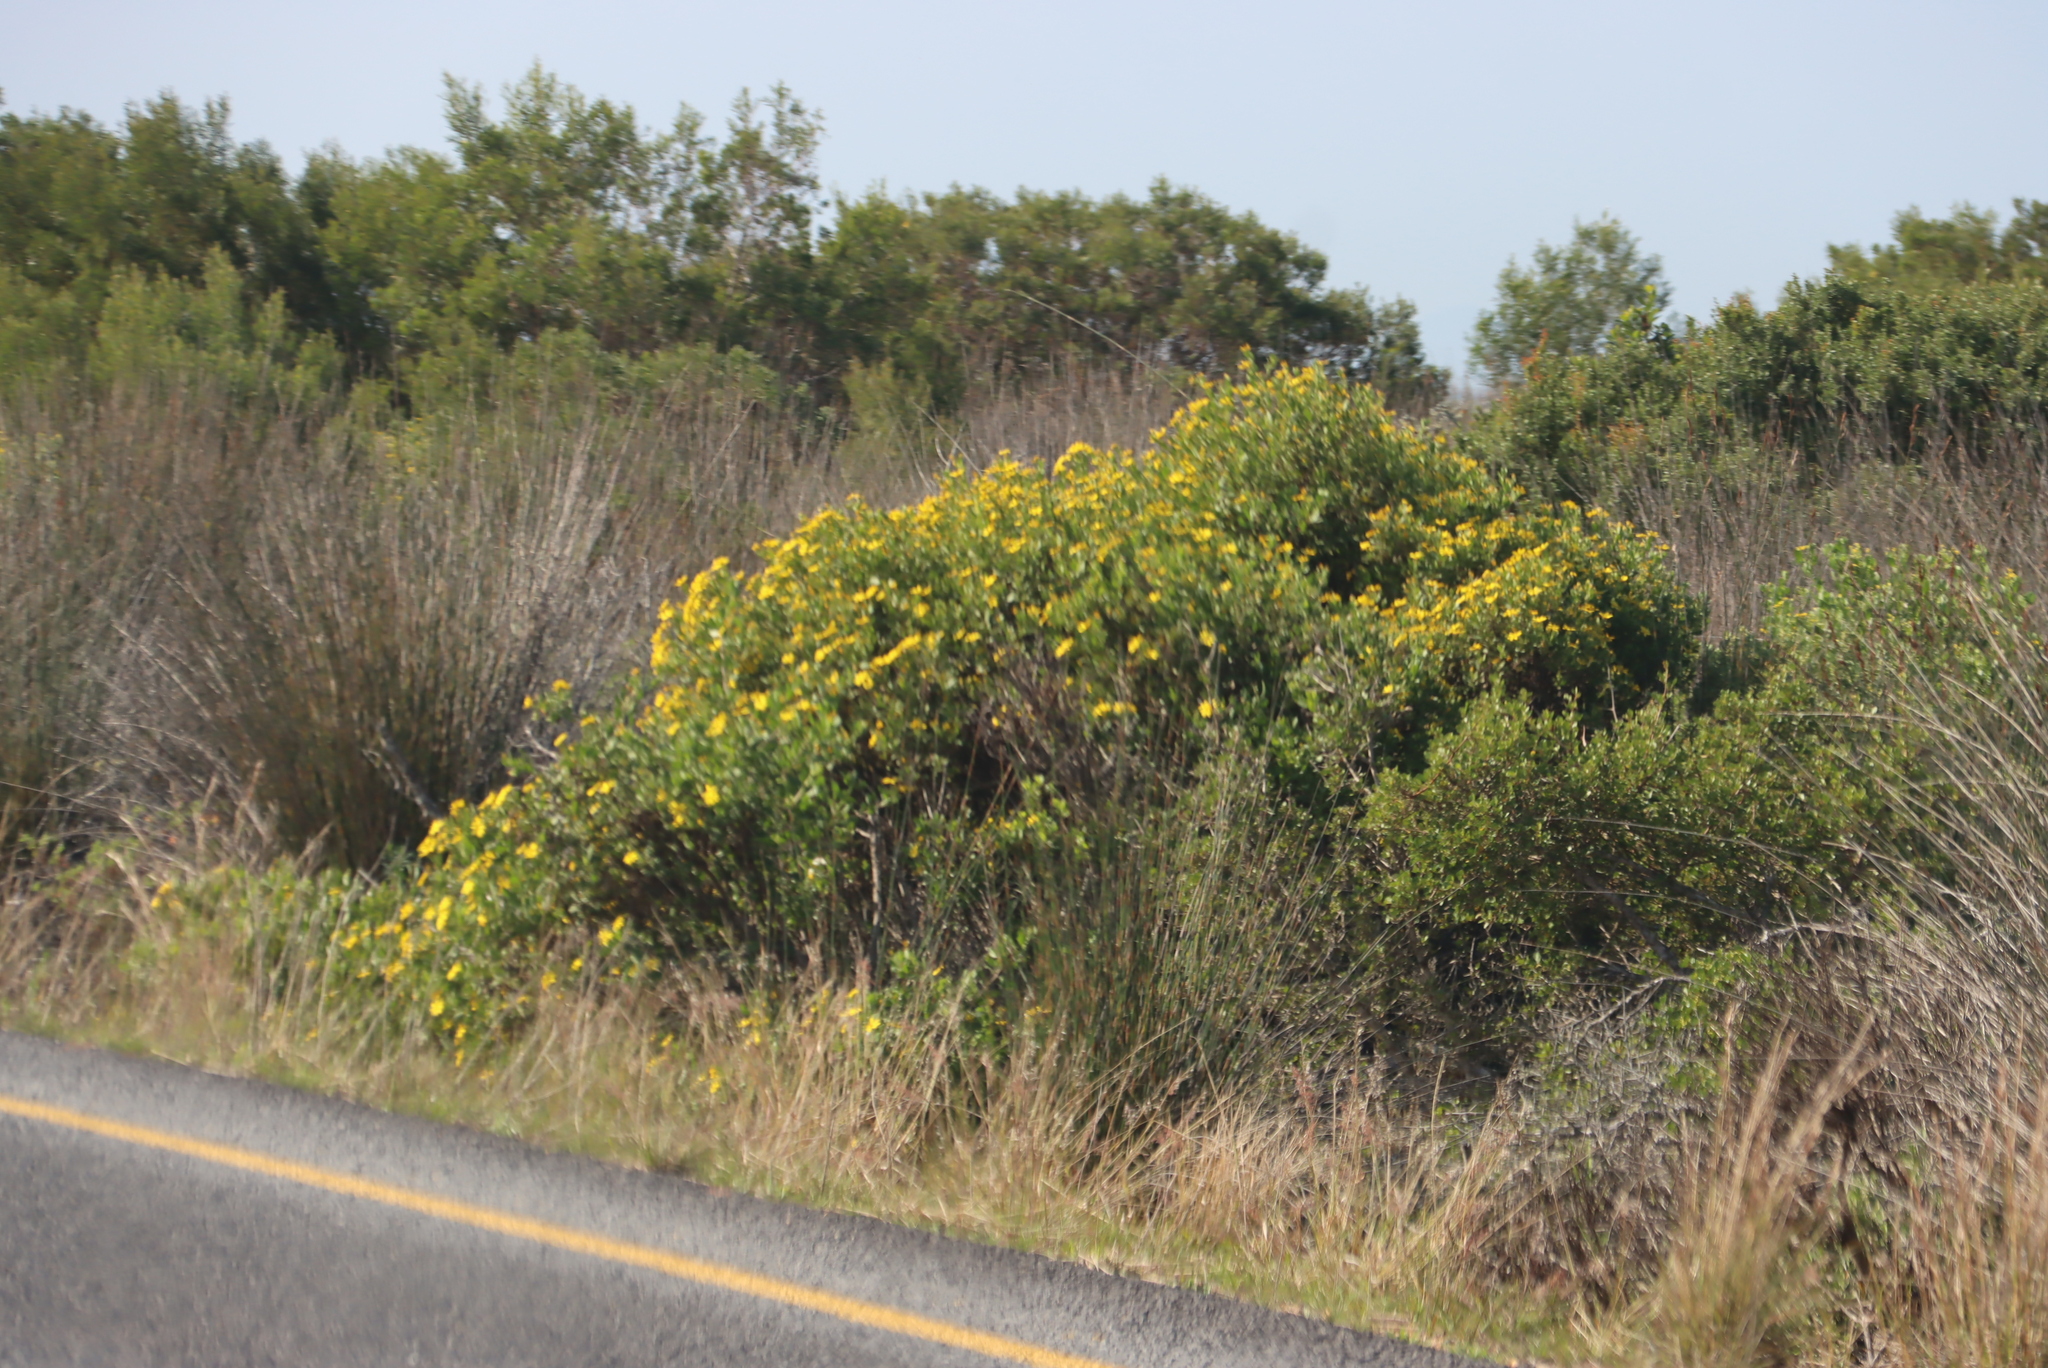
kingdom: Plantae
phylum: Tracheophyta
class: Magnoliopsida
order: Asterales
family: Asteraceae
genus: Osteospermum
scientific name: Osteospermum moniliferum
